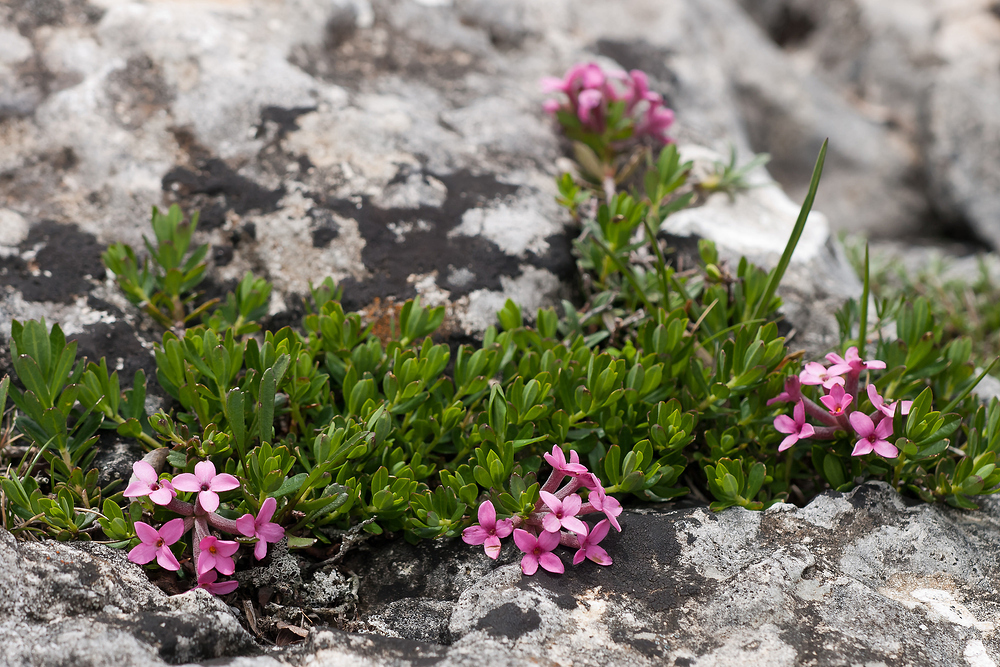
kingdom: Plantae
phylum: Tracheophyta
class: Magnoliopsida
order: Malvales
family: Thymelaeaceae
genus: Daphne
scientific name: Daphne cneorum
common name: Garland-flower
